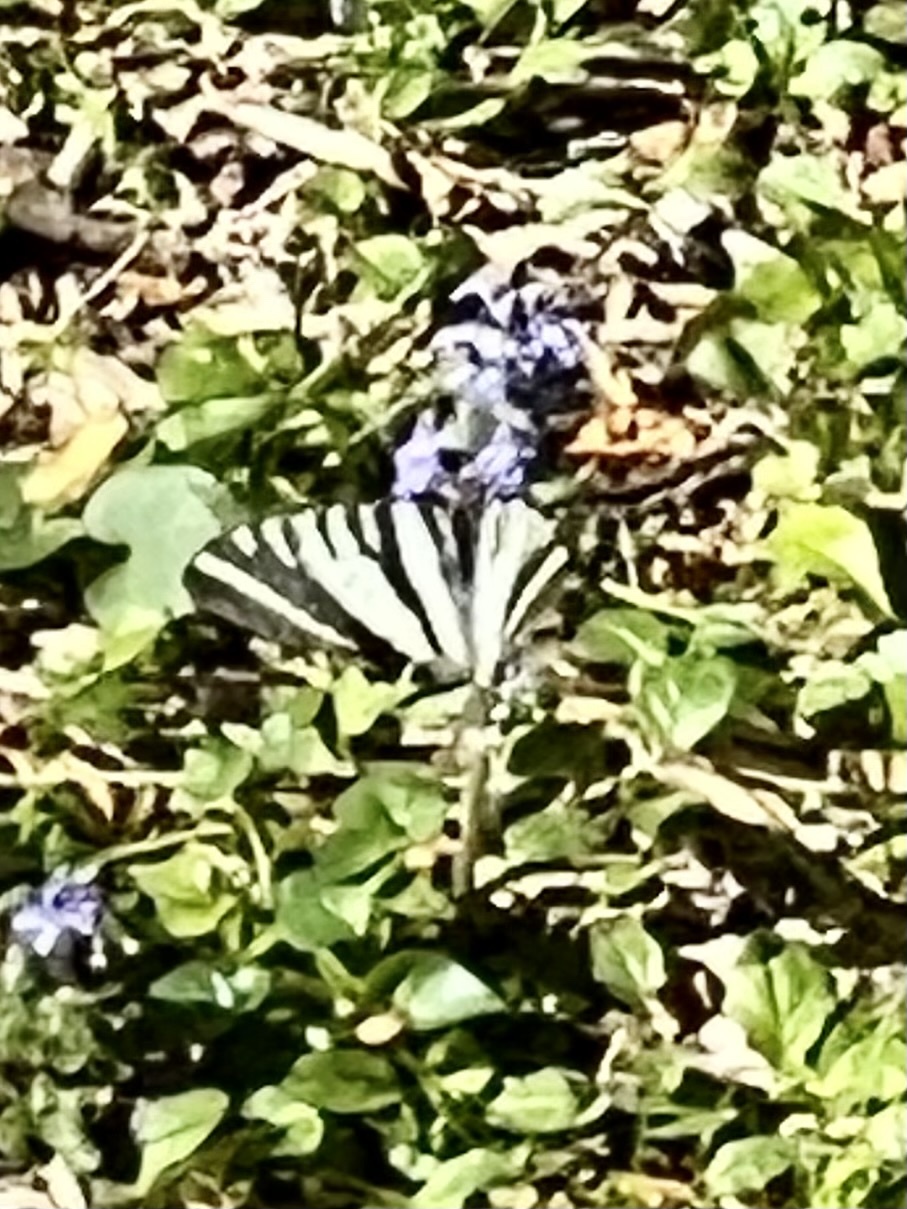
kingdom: Animalia
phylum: Arthropoda
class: Insecta
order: Lepidoptera
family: Papilionidae
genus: Protographium
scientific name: Protographium marcellus
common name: Zebra swallowtail
